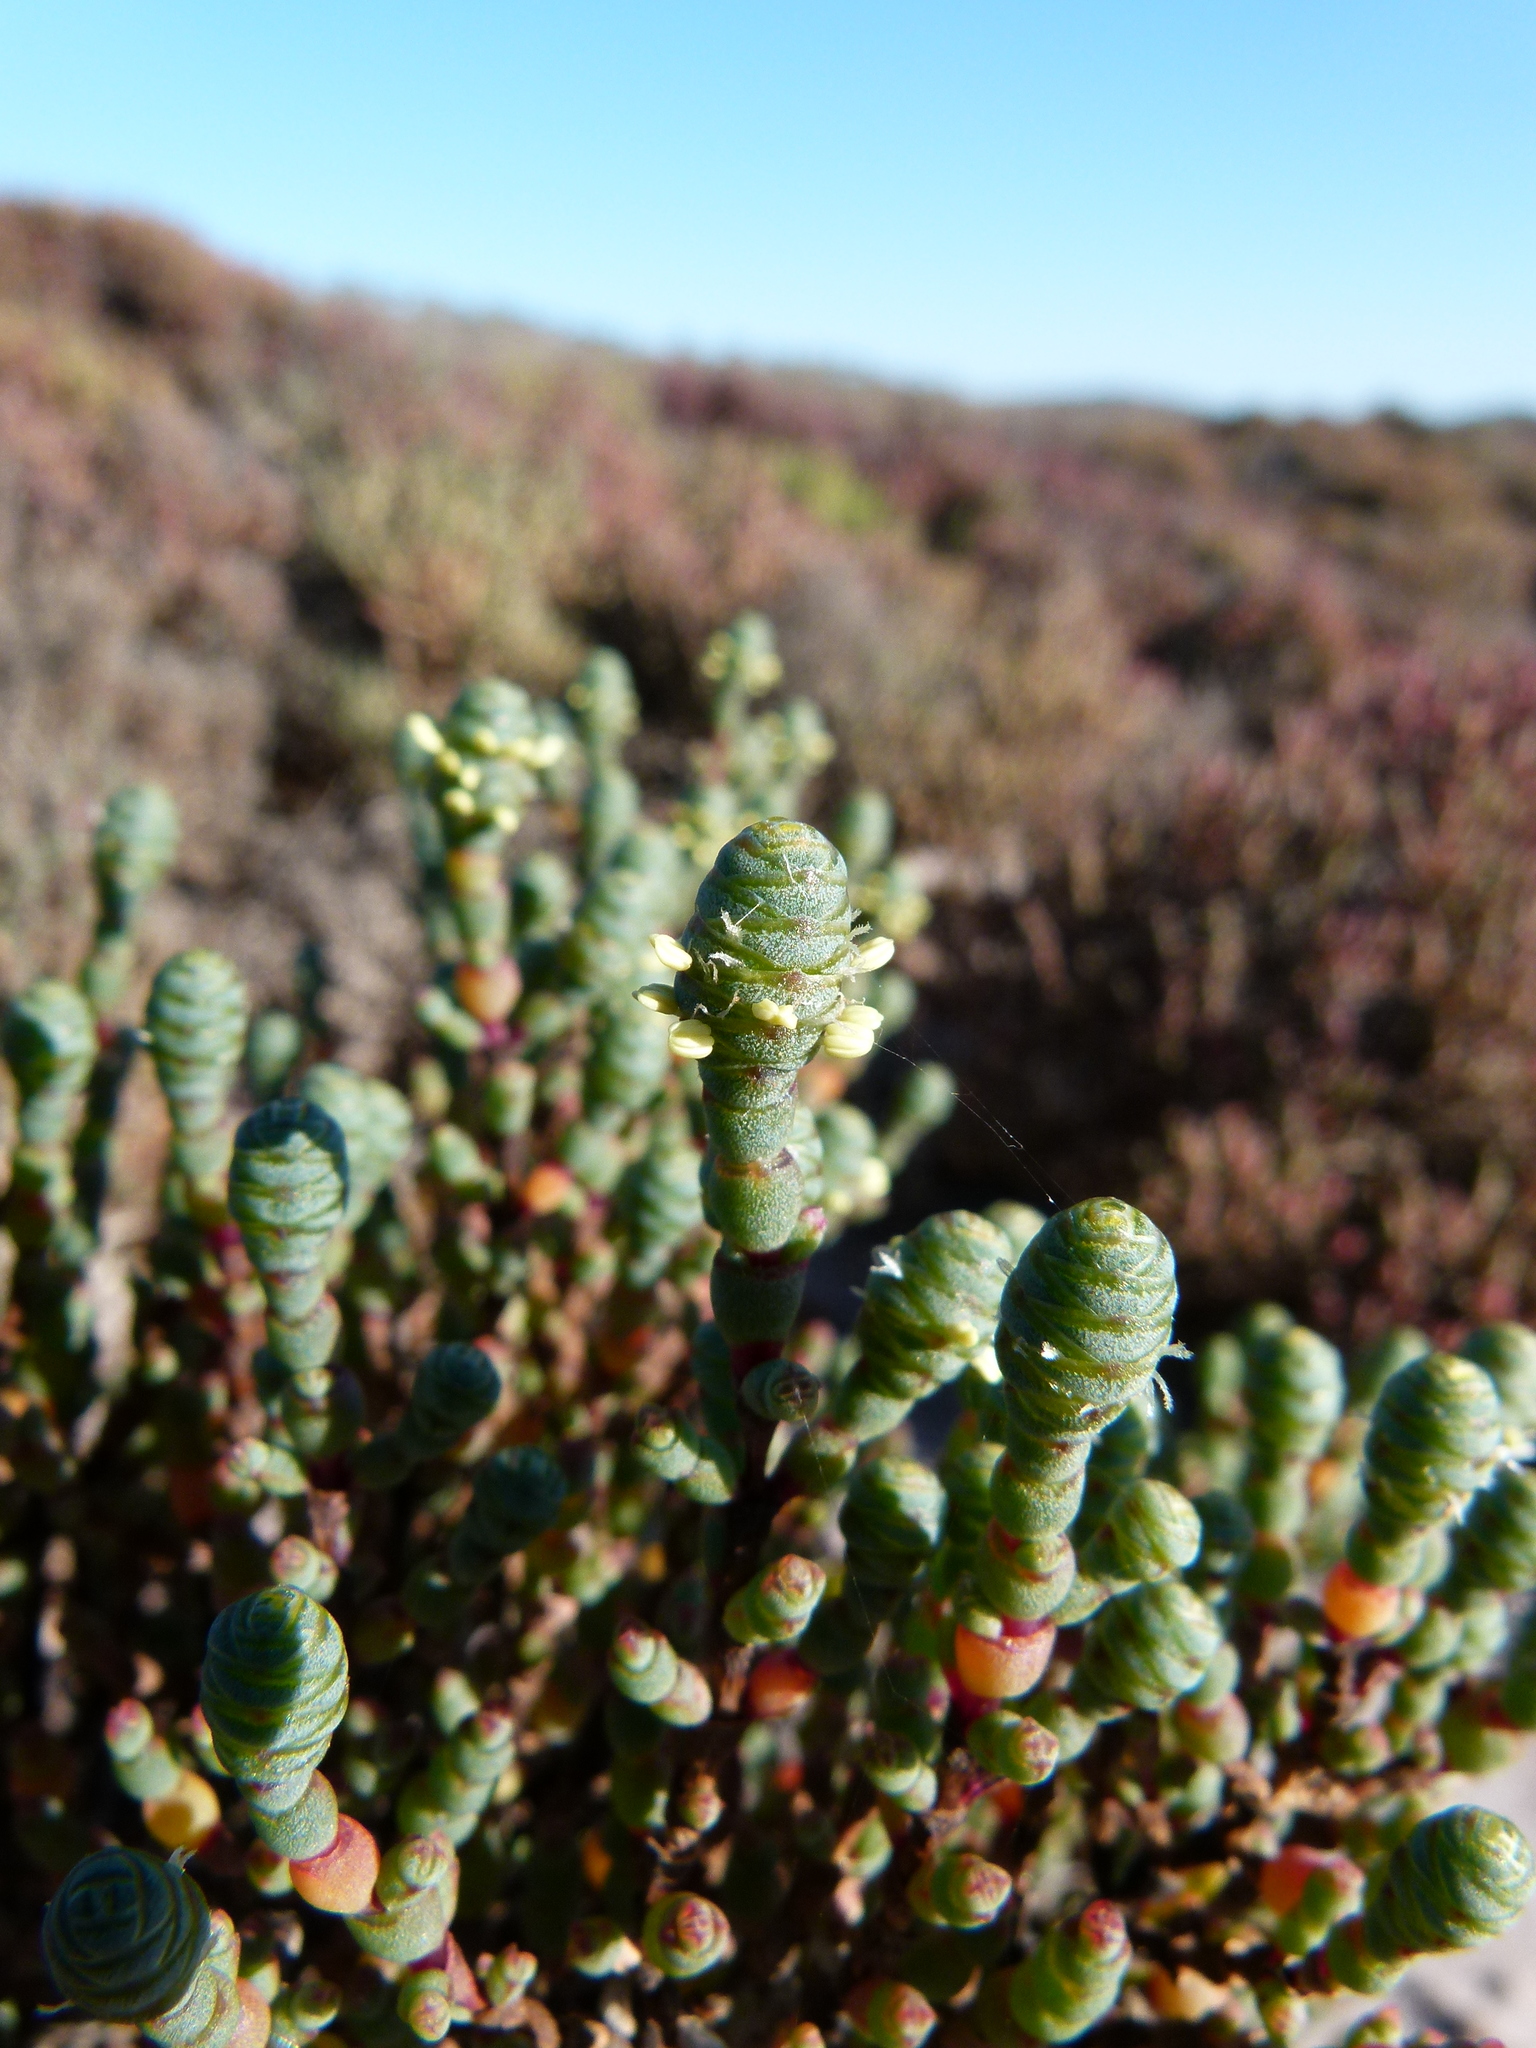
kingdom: Plantae
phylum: Tracheophyta
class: Magnoliopsida
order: Caryophyllales
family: Amaranthaceae
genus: Tecticornia
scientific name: Tecticornia laevigata
